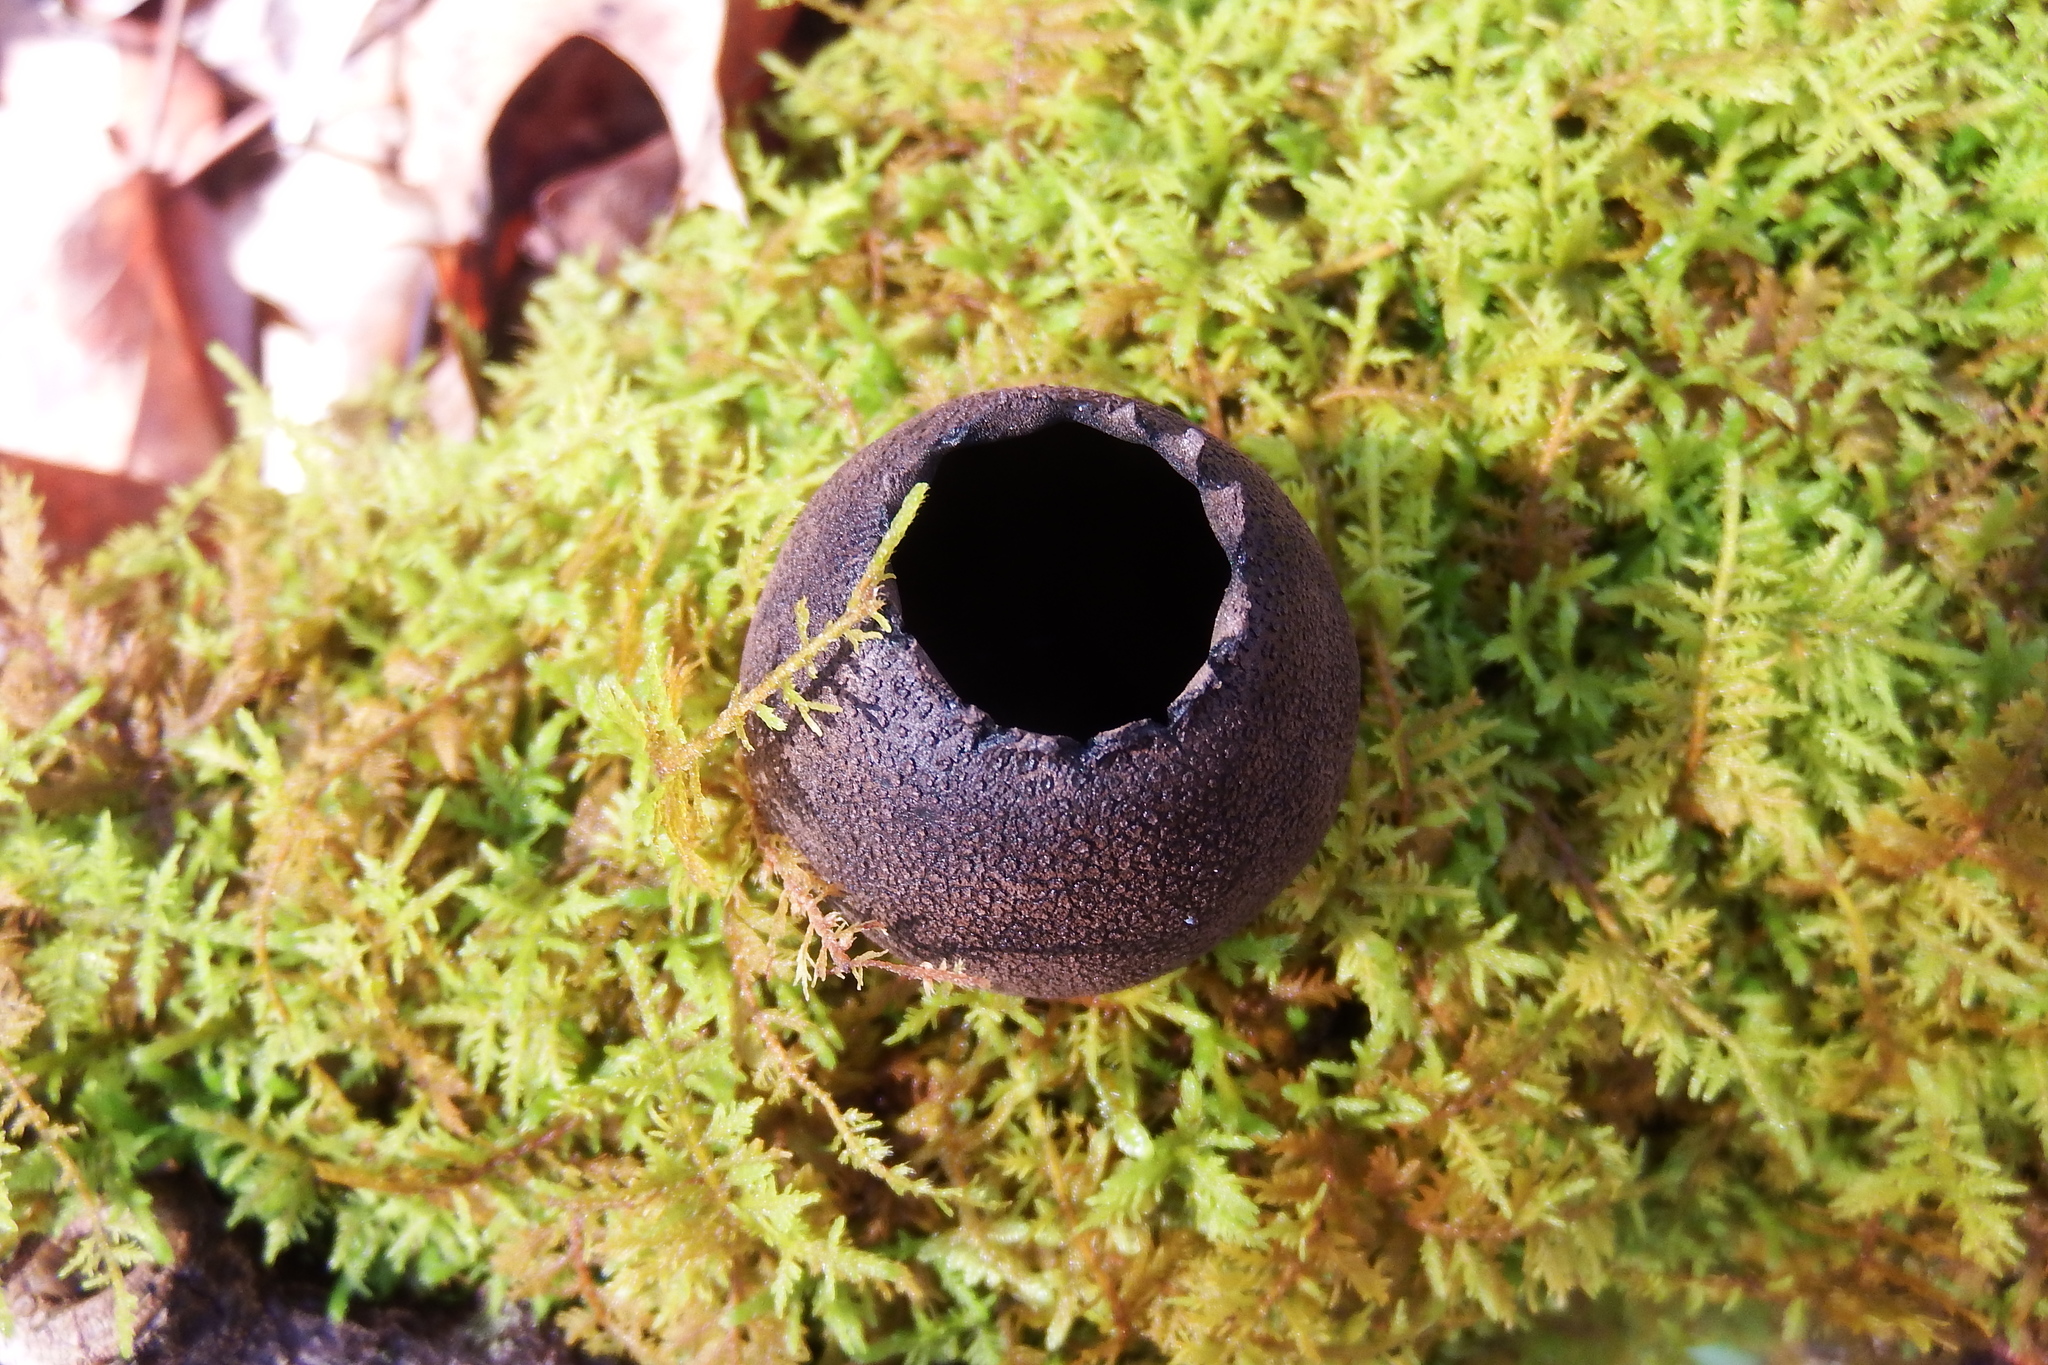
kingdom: Fungi
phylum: Ascomycota
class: Pezizomycetes
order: Pezizales
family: Sarcosomataceae
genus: Urnula
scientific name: Urnula craterium
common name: Devil's urn
